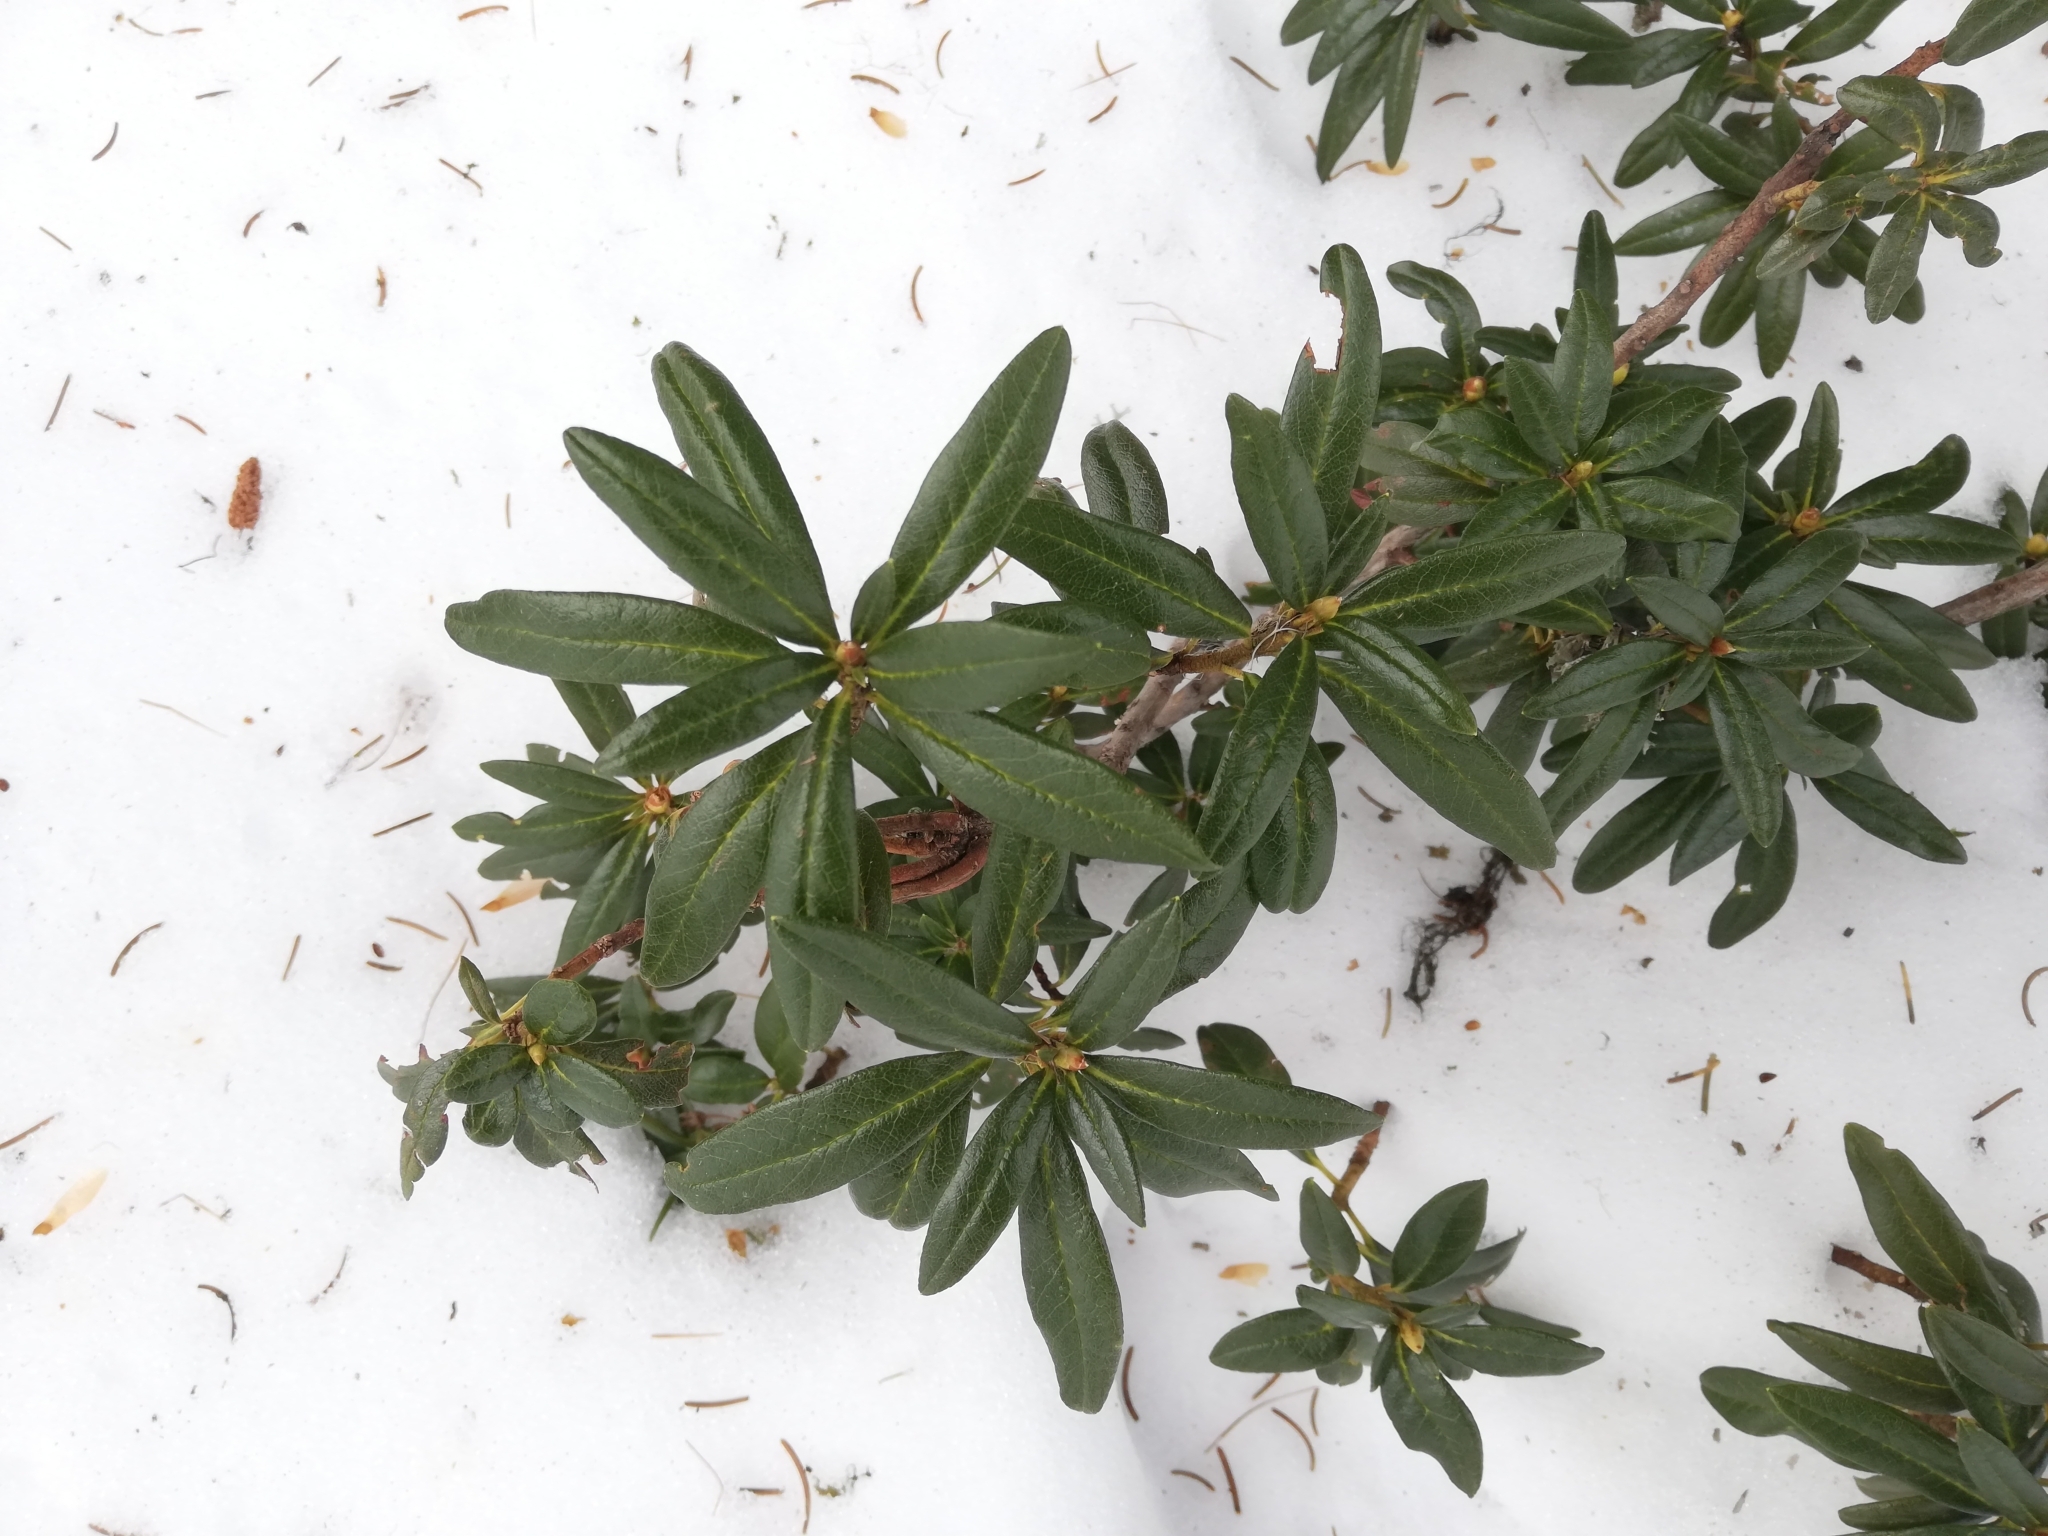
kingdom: Plantae
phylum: Tracheophyta
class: Magnoliopsida
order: Ericales
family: Ericaceae
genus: Rhododendron
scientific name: Rhododendron ferrugineum
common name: Alpenrose
